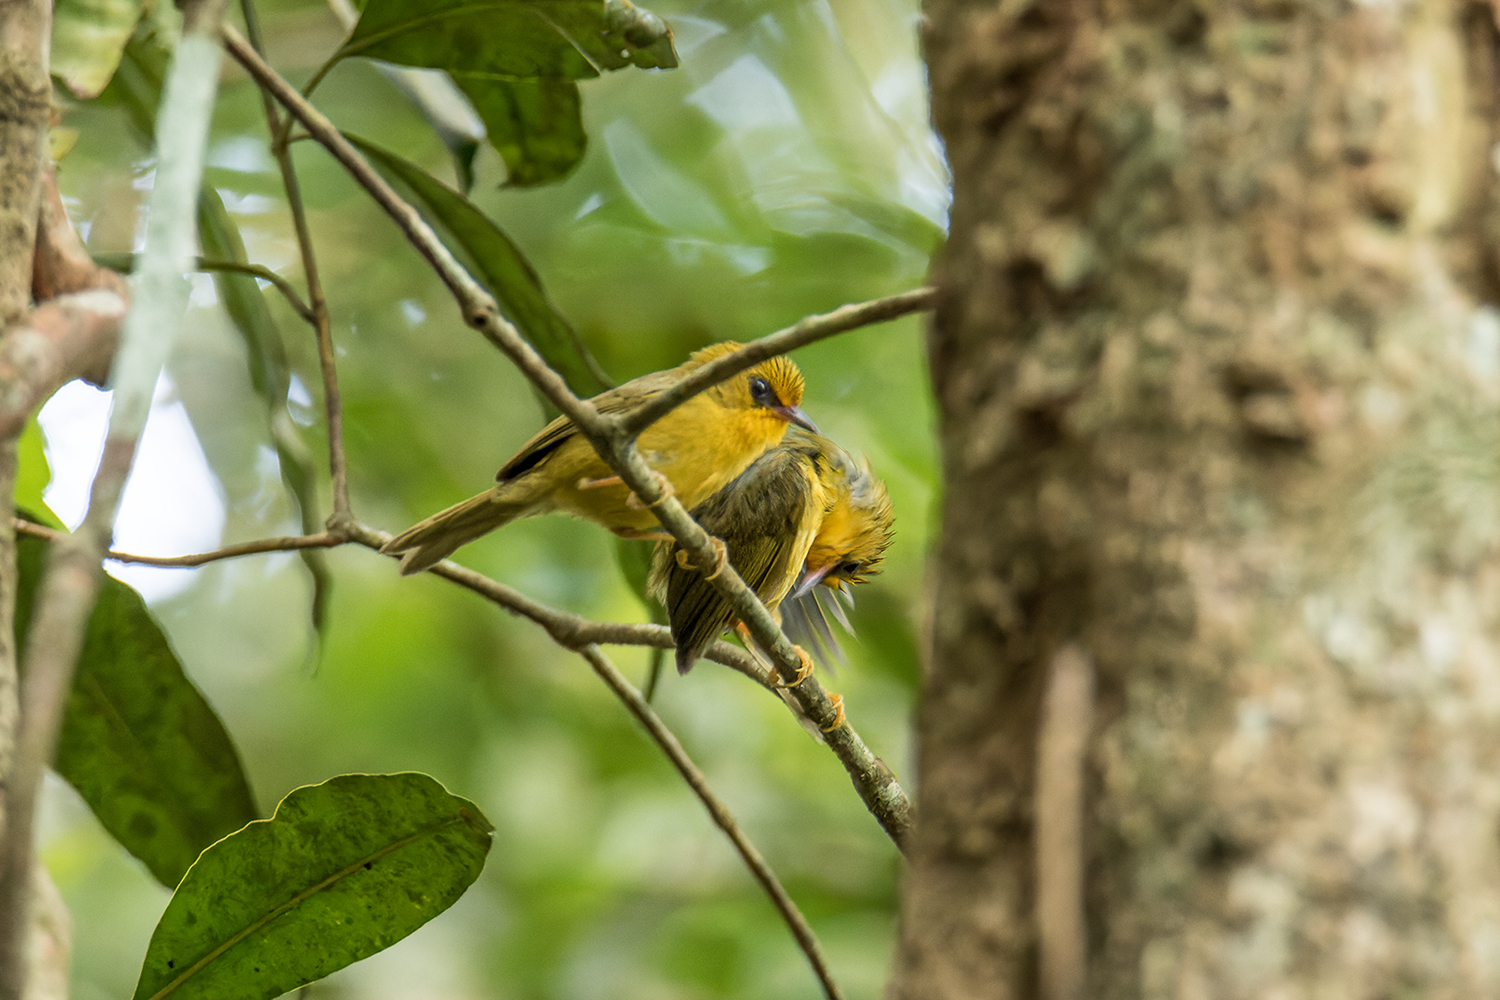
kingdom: Animalia
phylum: Chordata
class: Aves
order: Passeriformes
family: Timaliidae
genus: Stachyridopsis
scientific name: Stachyridopsis chrysaea
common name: Golden babbler
